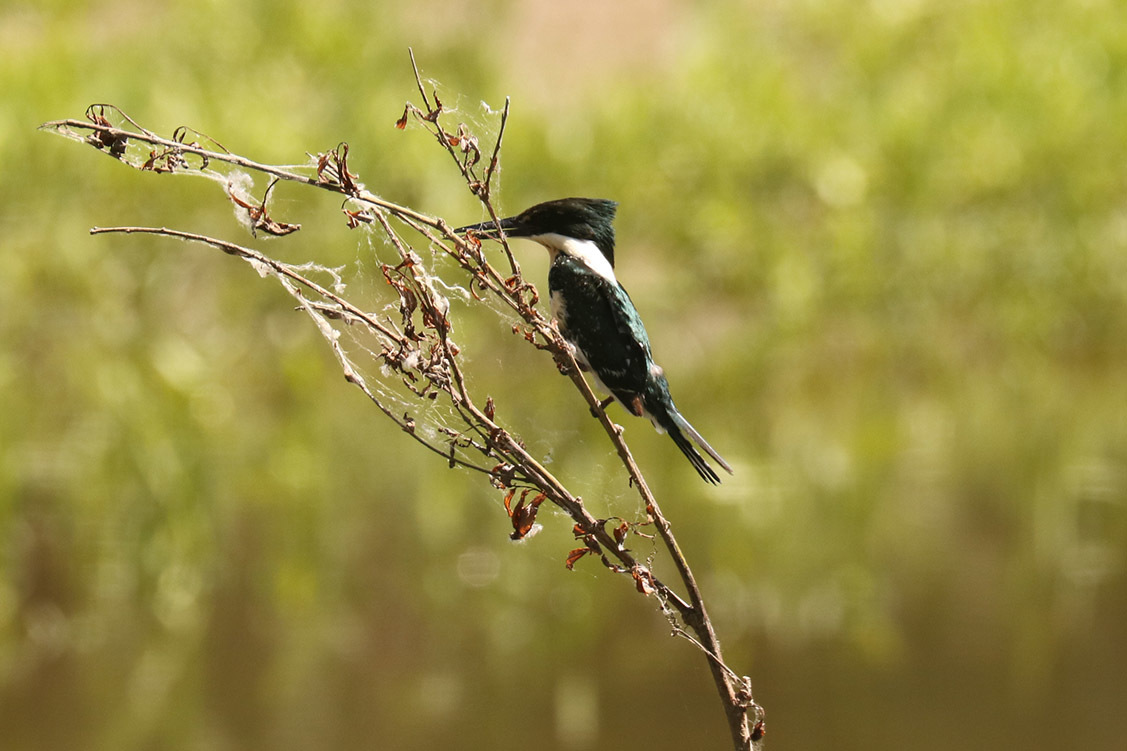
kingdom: Animalia
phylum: Chordata
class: Aves
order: Coraciiformes
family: Alcedinidae
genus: Chloroceryle
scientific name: Chloroceryle americana
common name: Green kingfisher
